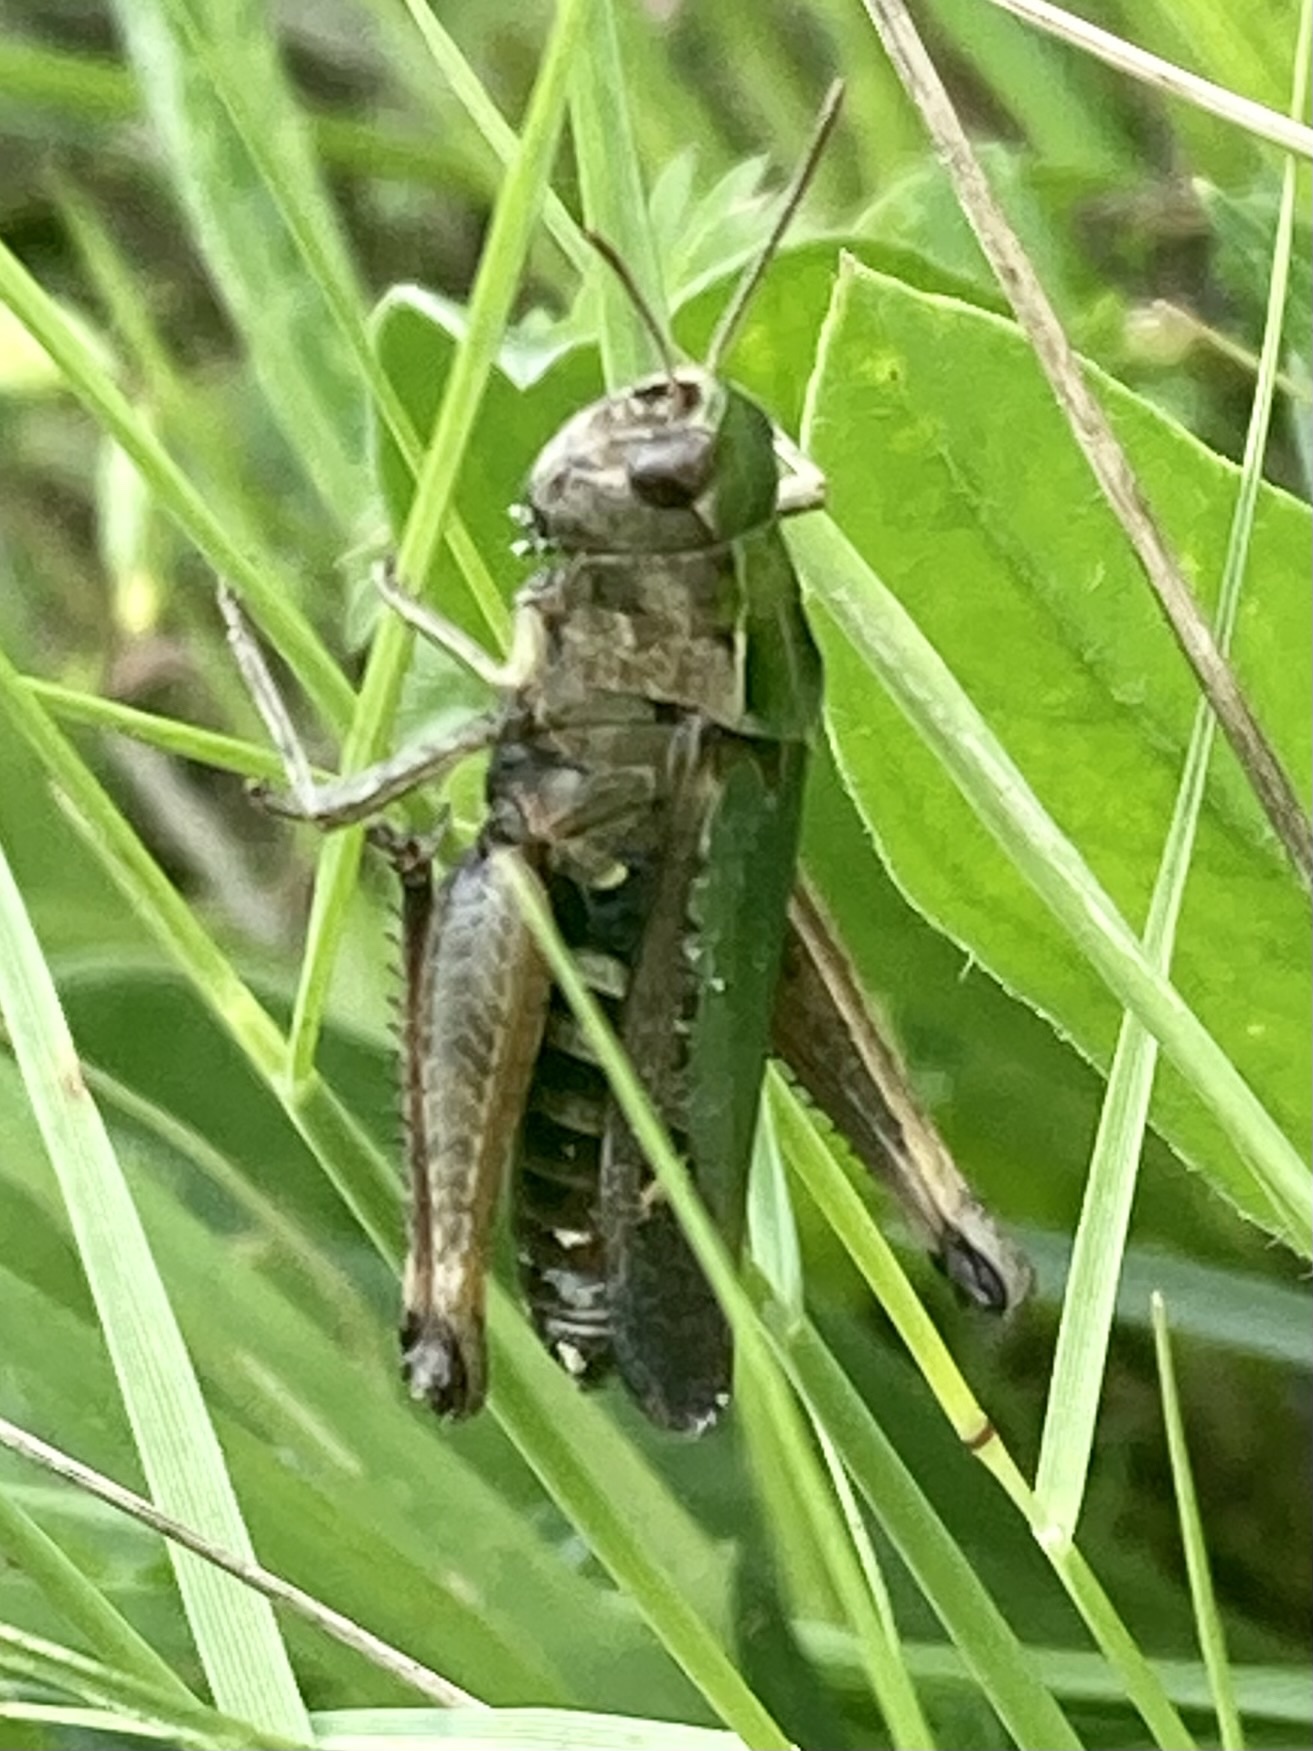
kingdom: Animalia
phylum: Arthropoda
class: Insecta
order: Orthoptera
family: Acrididae
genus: Omocestus
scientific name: Omocestus rufipes
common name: Woodland grasshopper
